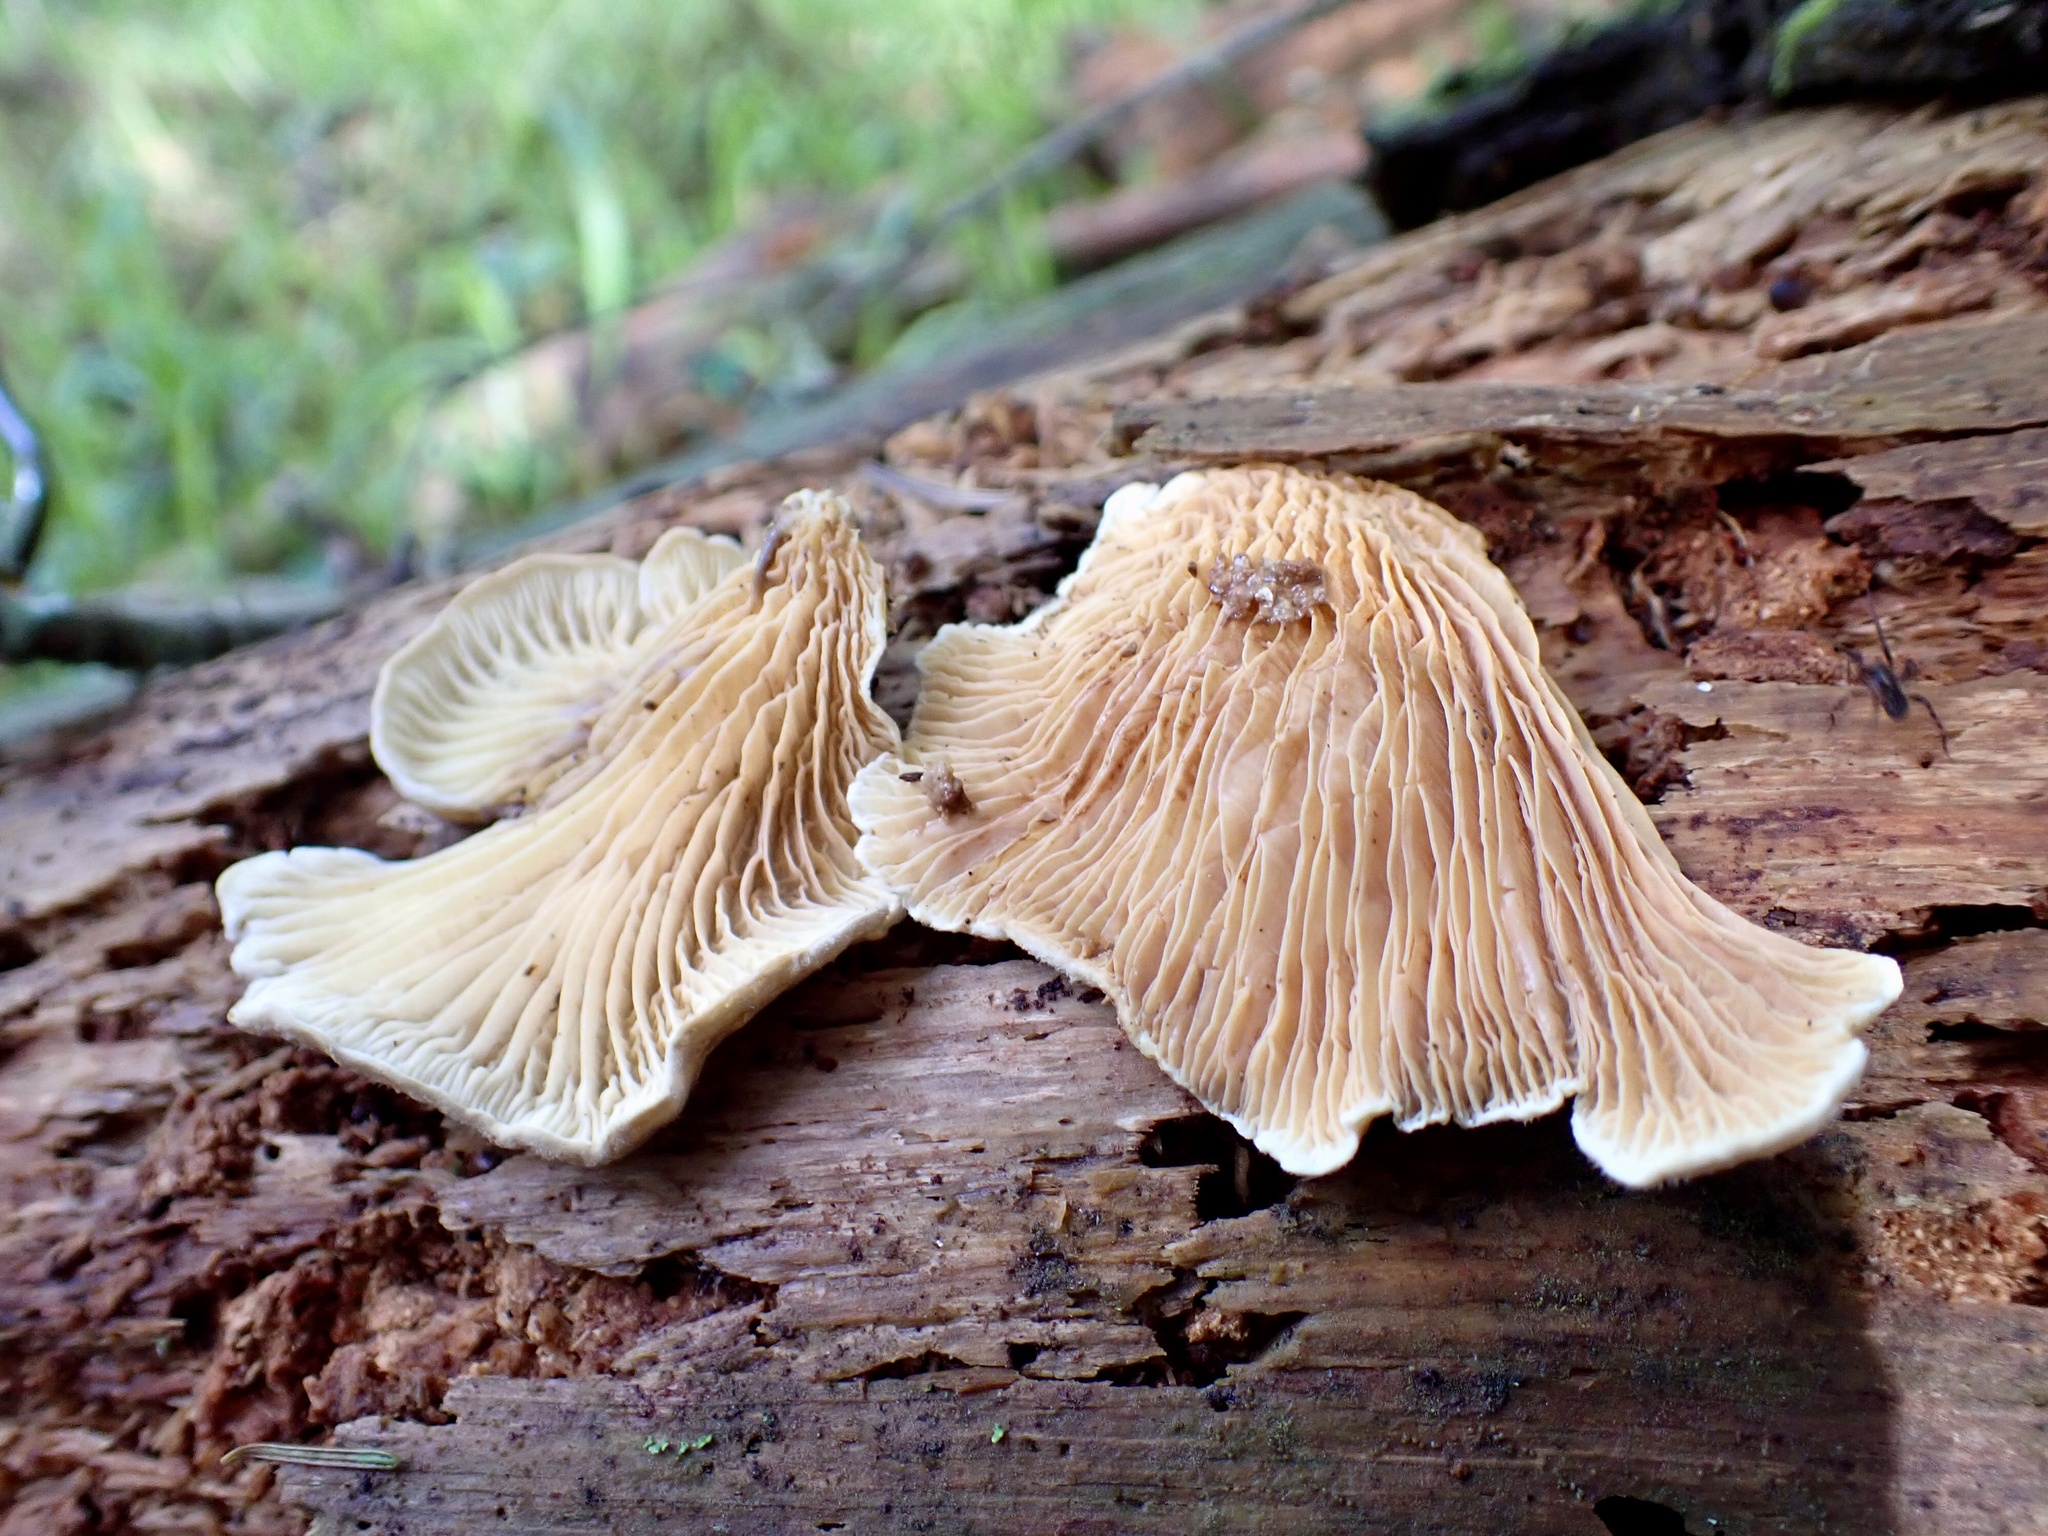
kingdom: Fungi
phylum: Basidiomycota
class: Agaricomycetes
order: Boletales
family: Tapinellaceae
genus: Tapinella
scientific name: Tapinella panuoides
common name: Oyster rollrim
